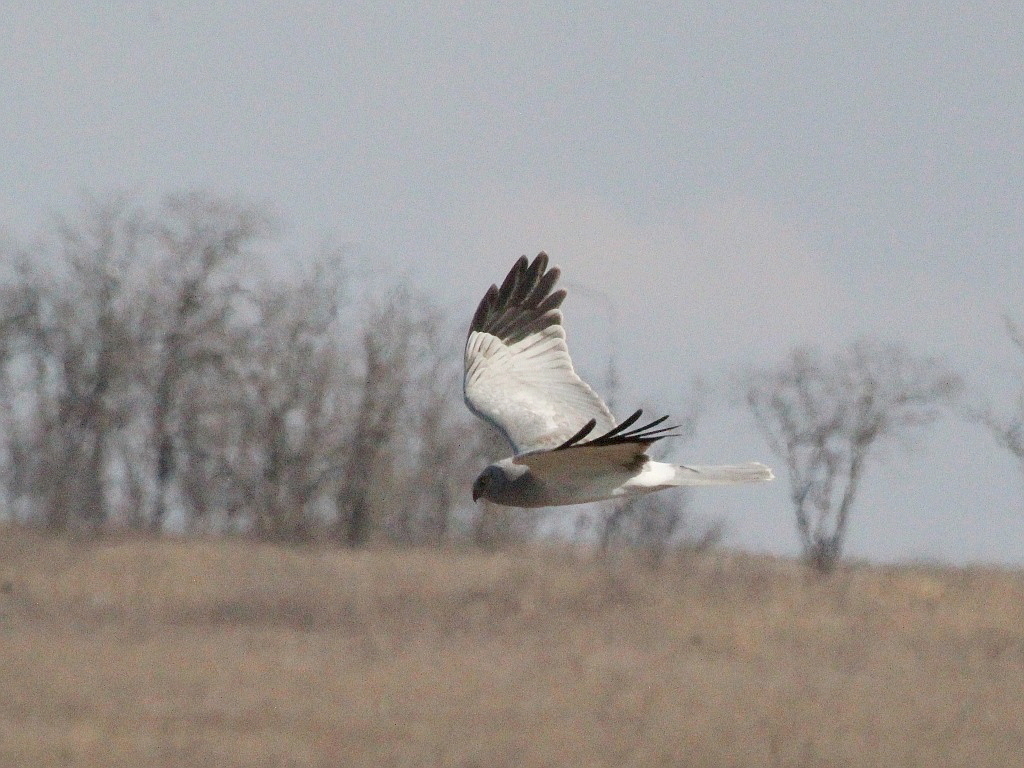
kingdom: Animalia
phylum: Chordata
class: Aves
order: Accipitriformes
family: Accipitridae
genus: Circus
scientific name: Circus cyaneus
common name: Hen harrier
